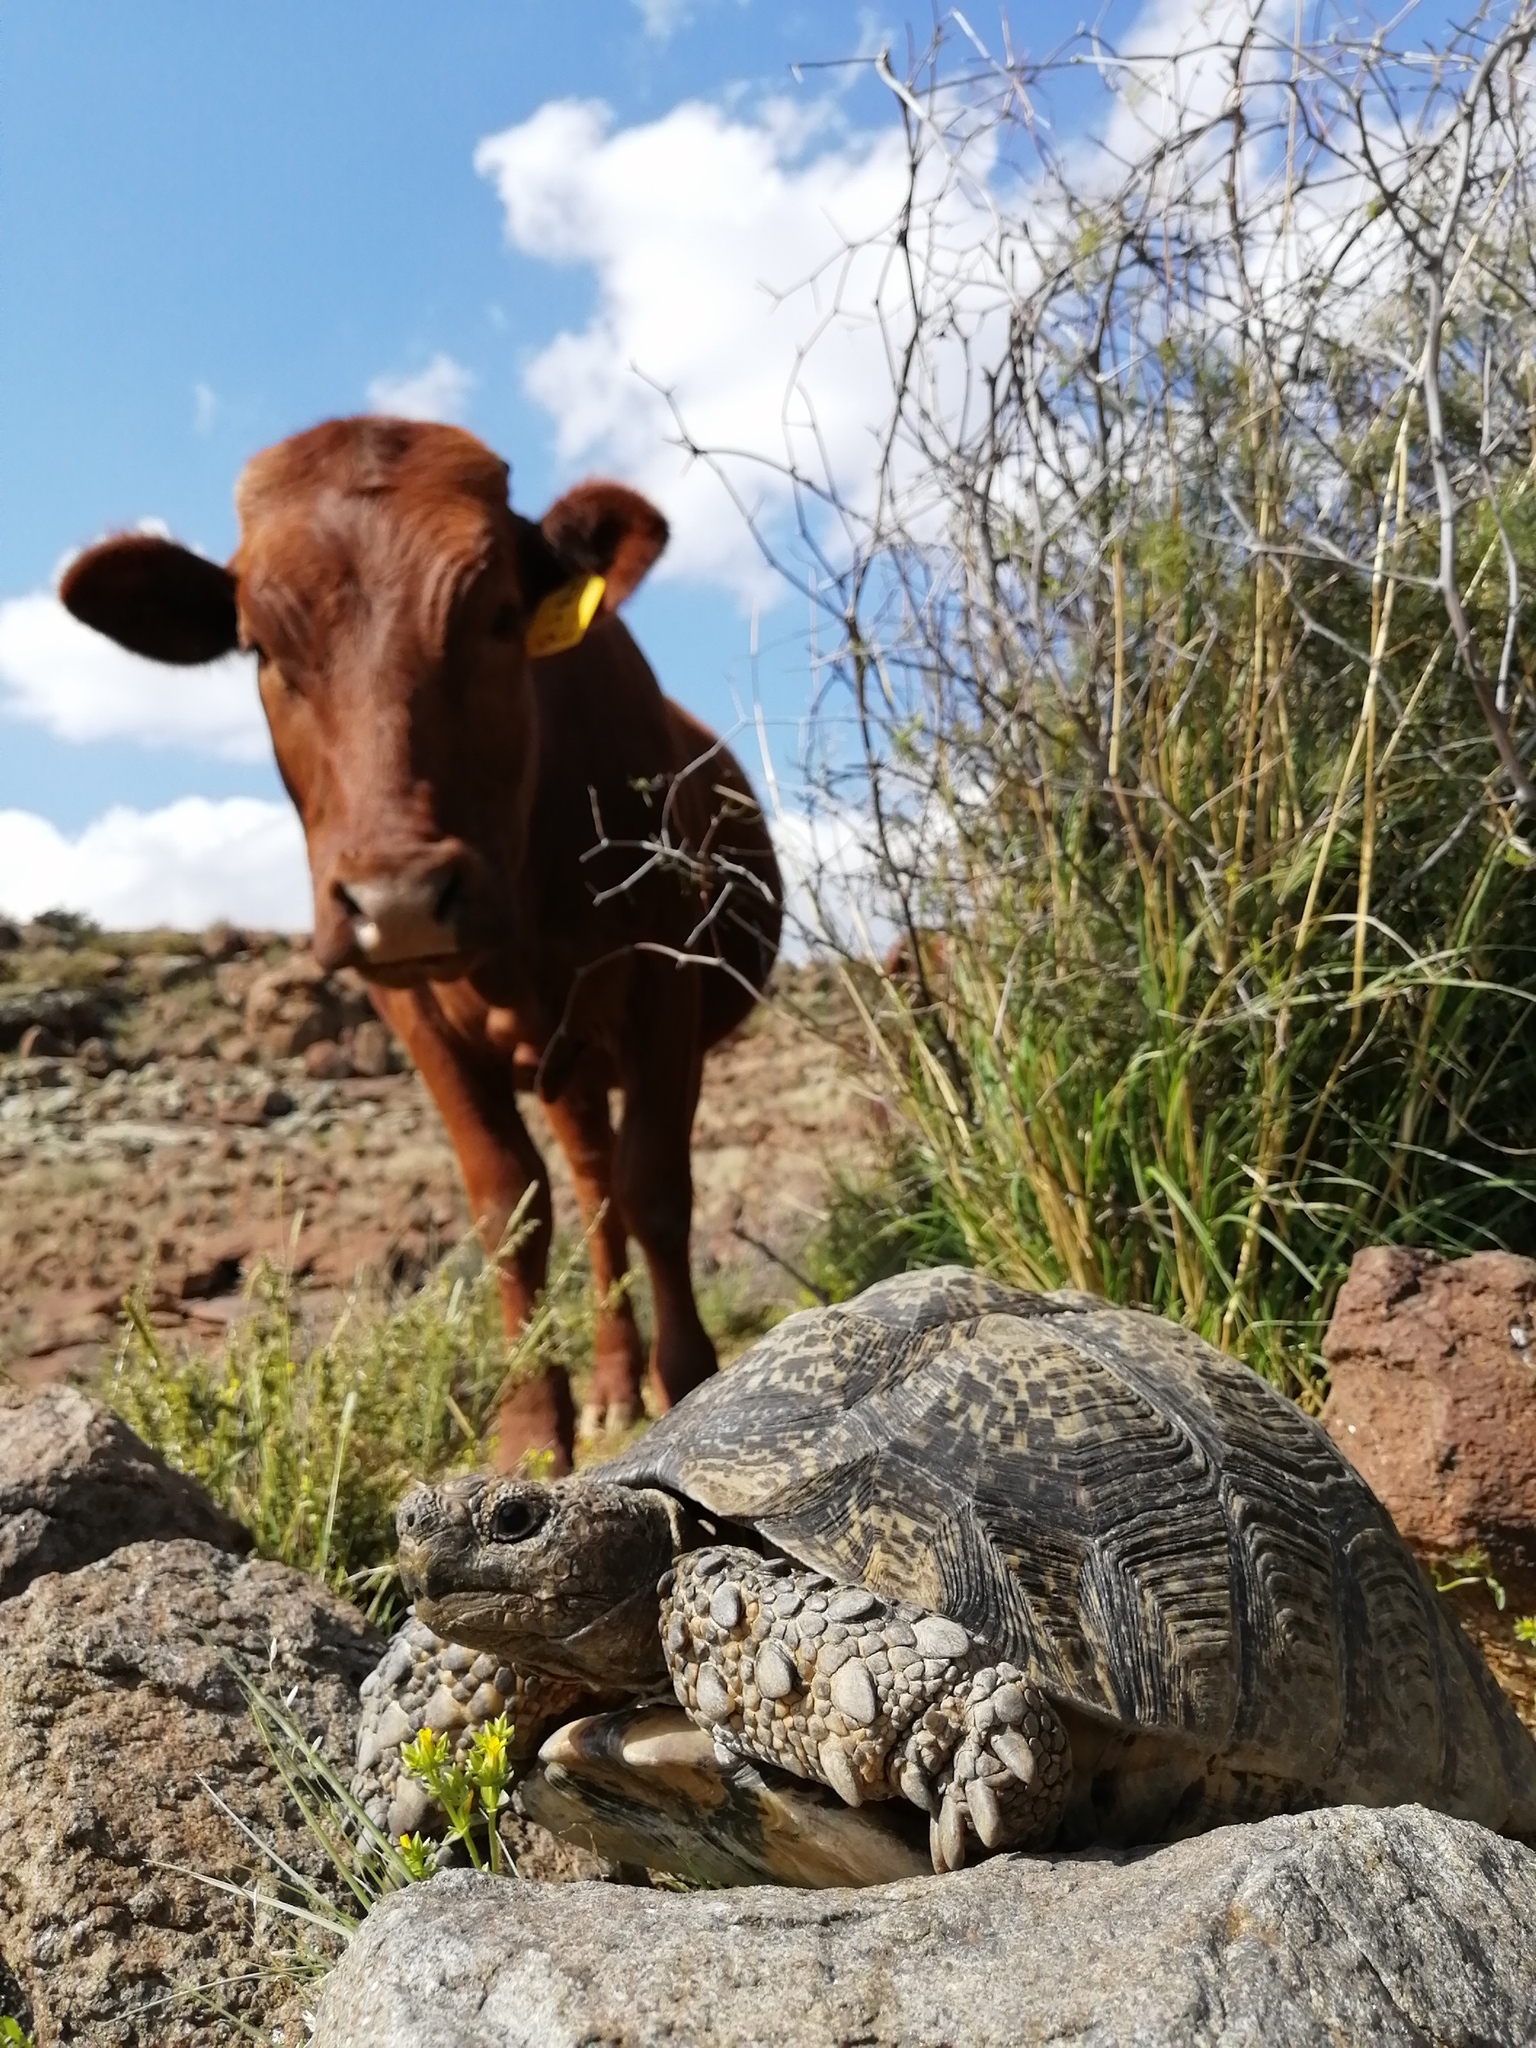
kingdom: Animalia
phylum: Chordata
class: Testudines
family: Testudinidae
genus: Stigmochelys
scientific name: Stigmochelys pardalis
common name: Leopard tortoise
